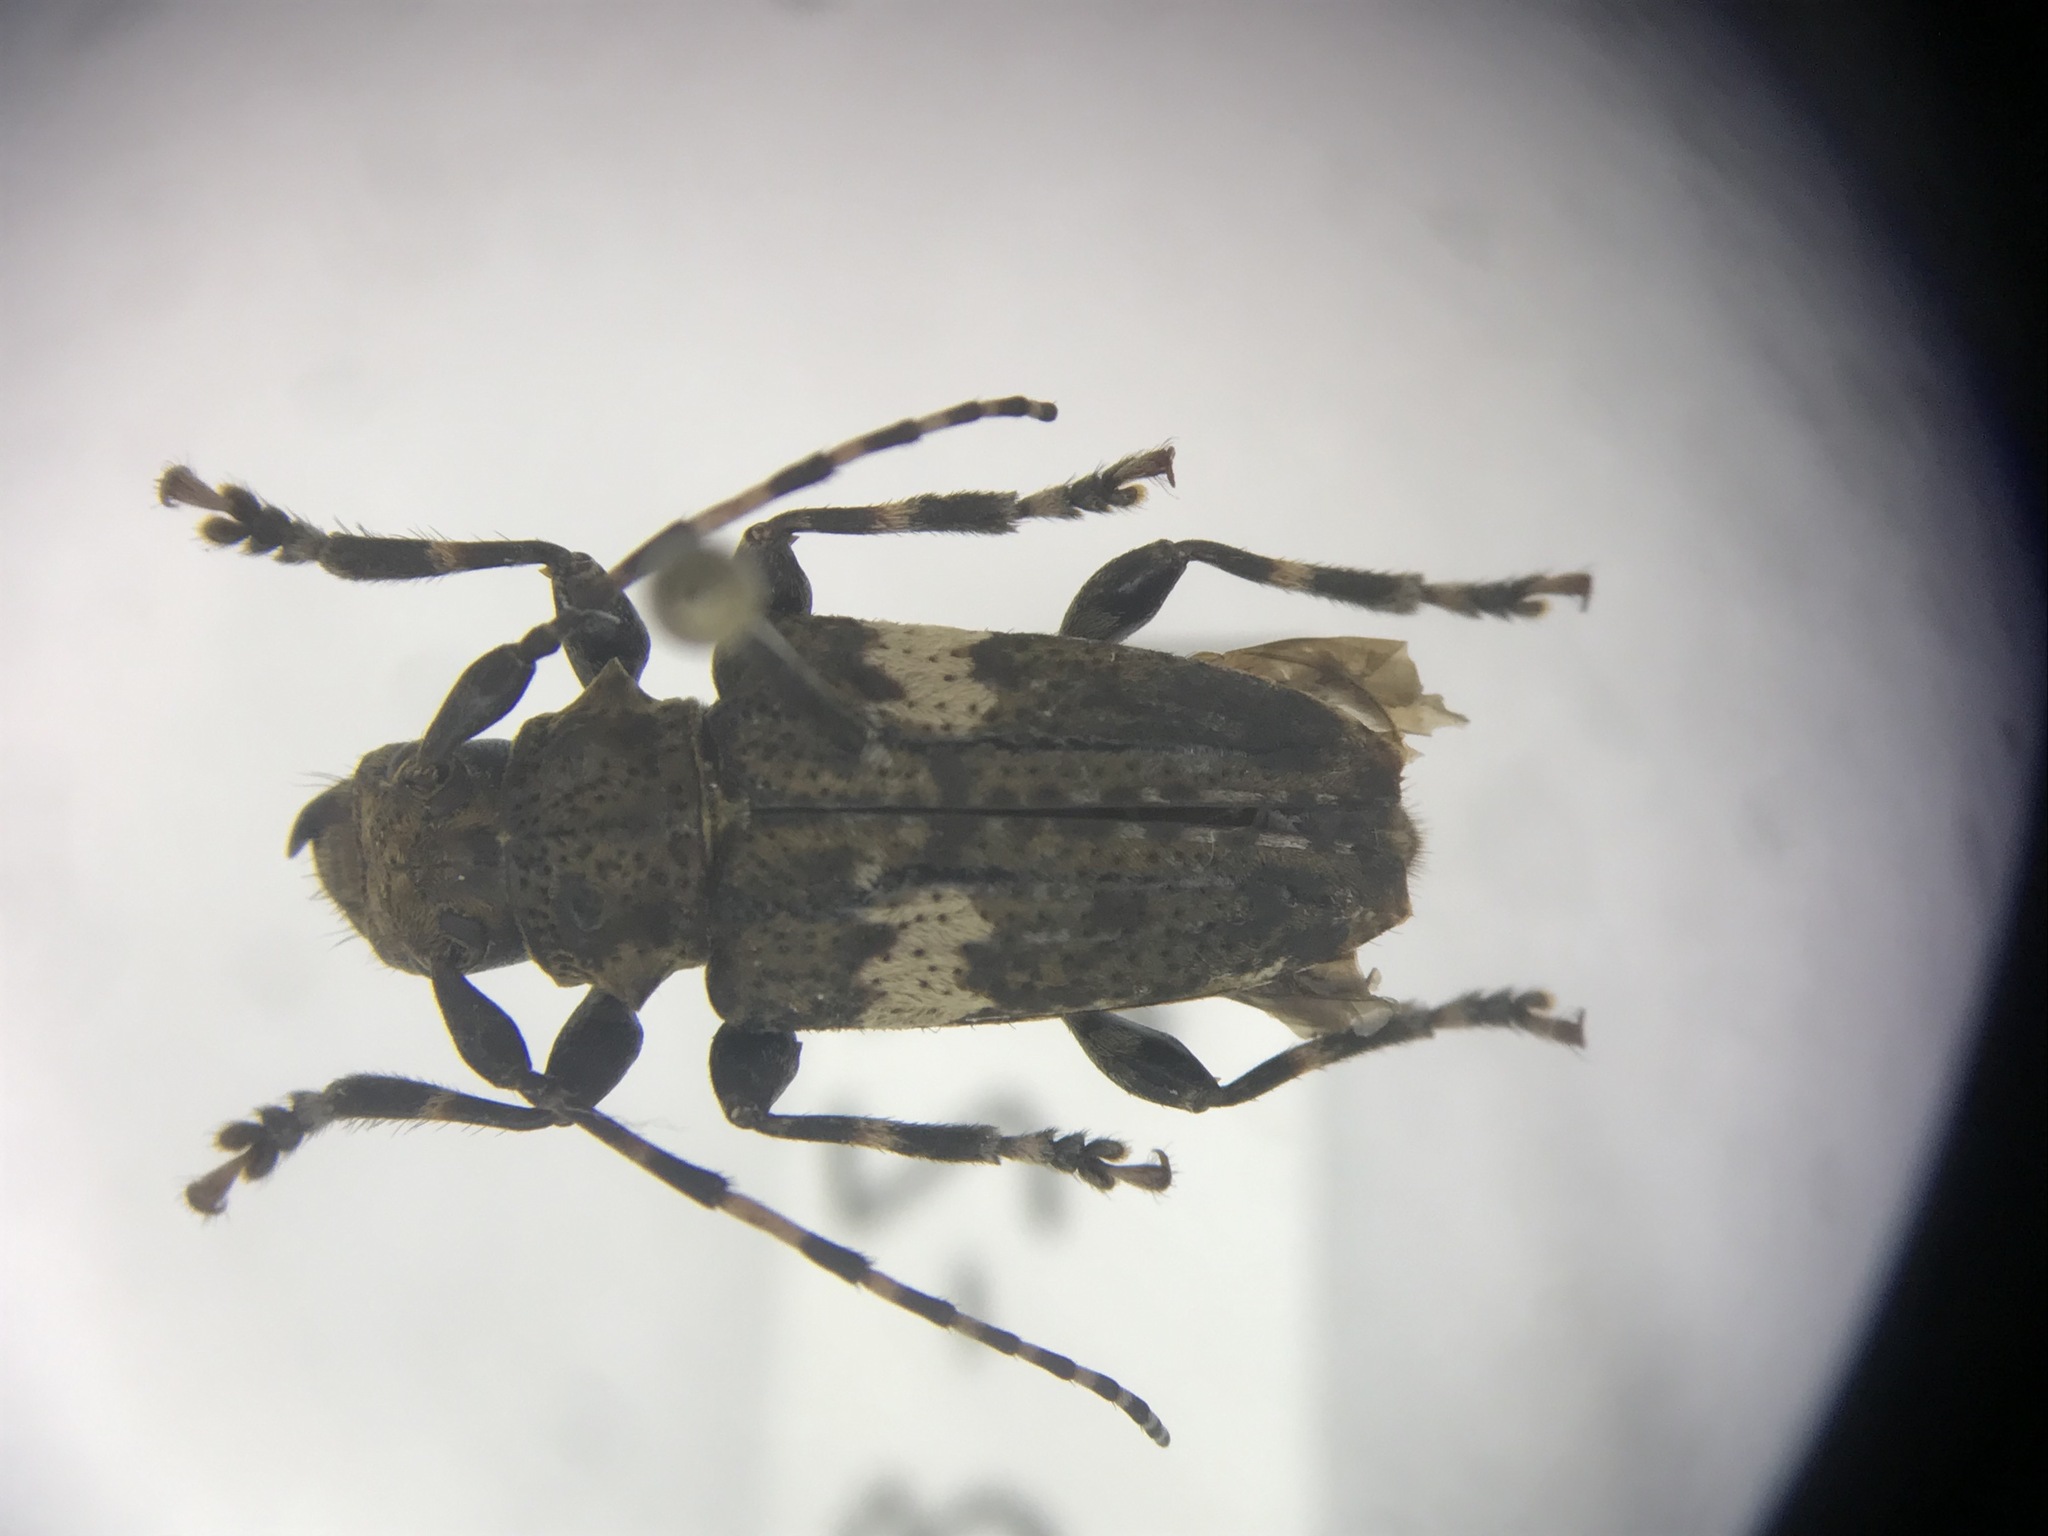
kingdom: Animalia
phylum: Arthropoda
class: Insecta
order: Coleoptera
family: Cerambycidae
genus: Acanthoderes
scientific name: Acanthoderes quadrigibba
